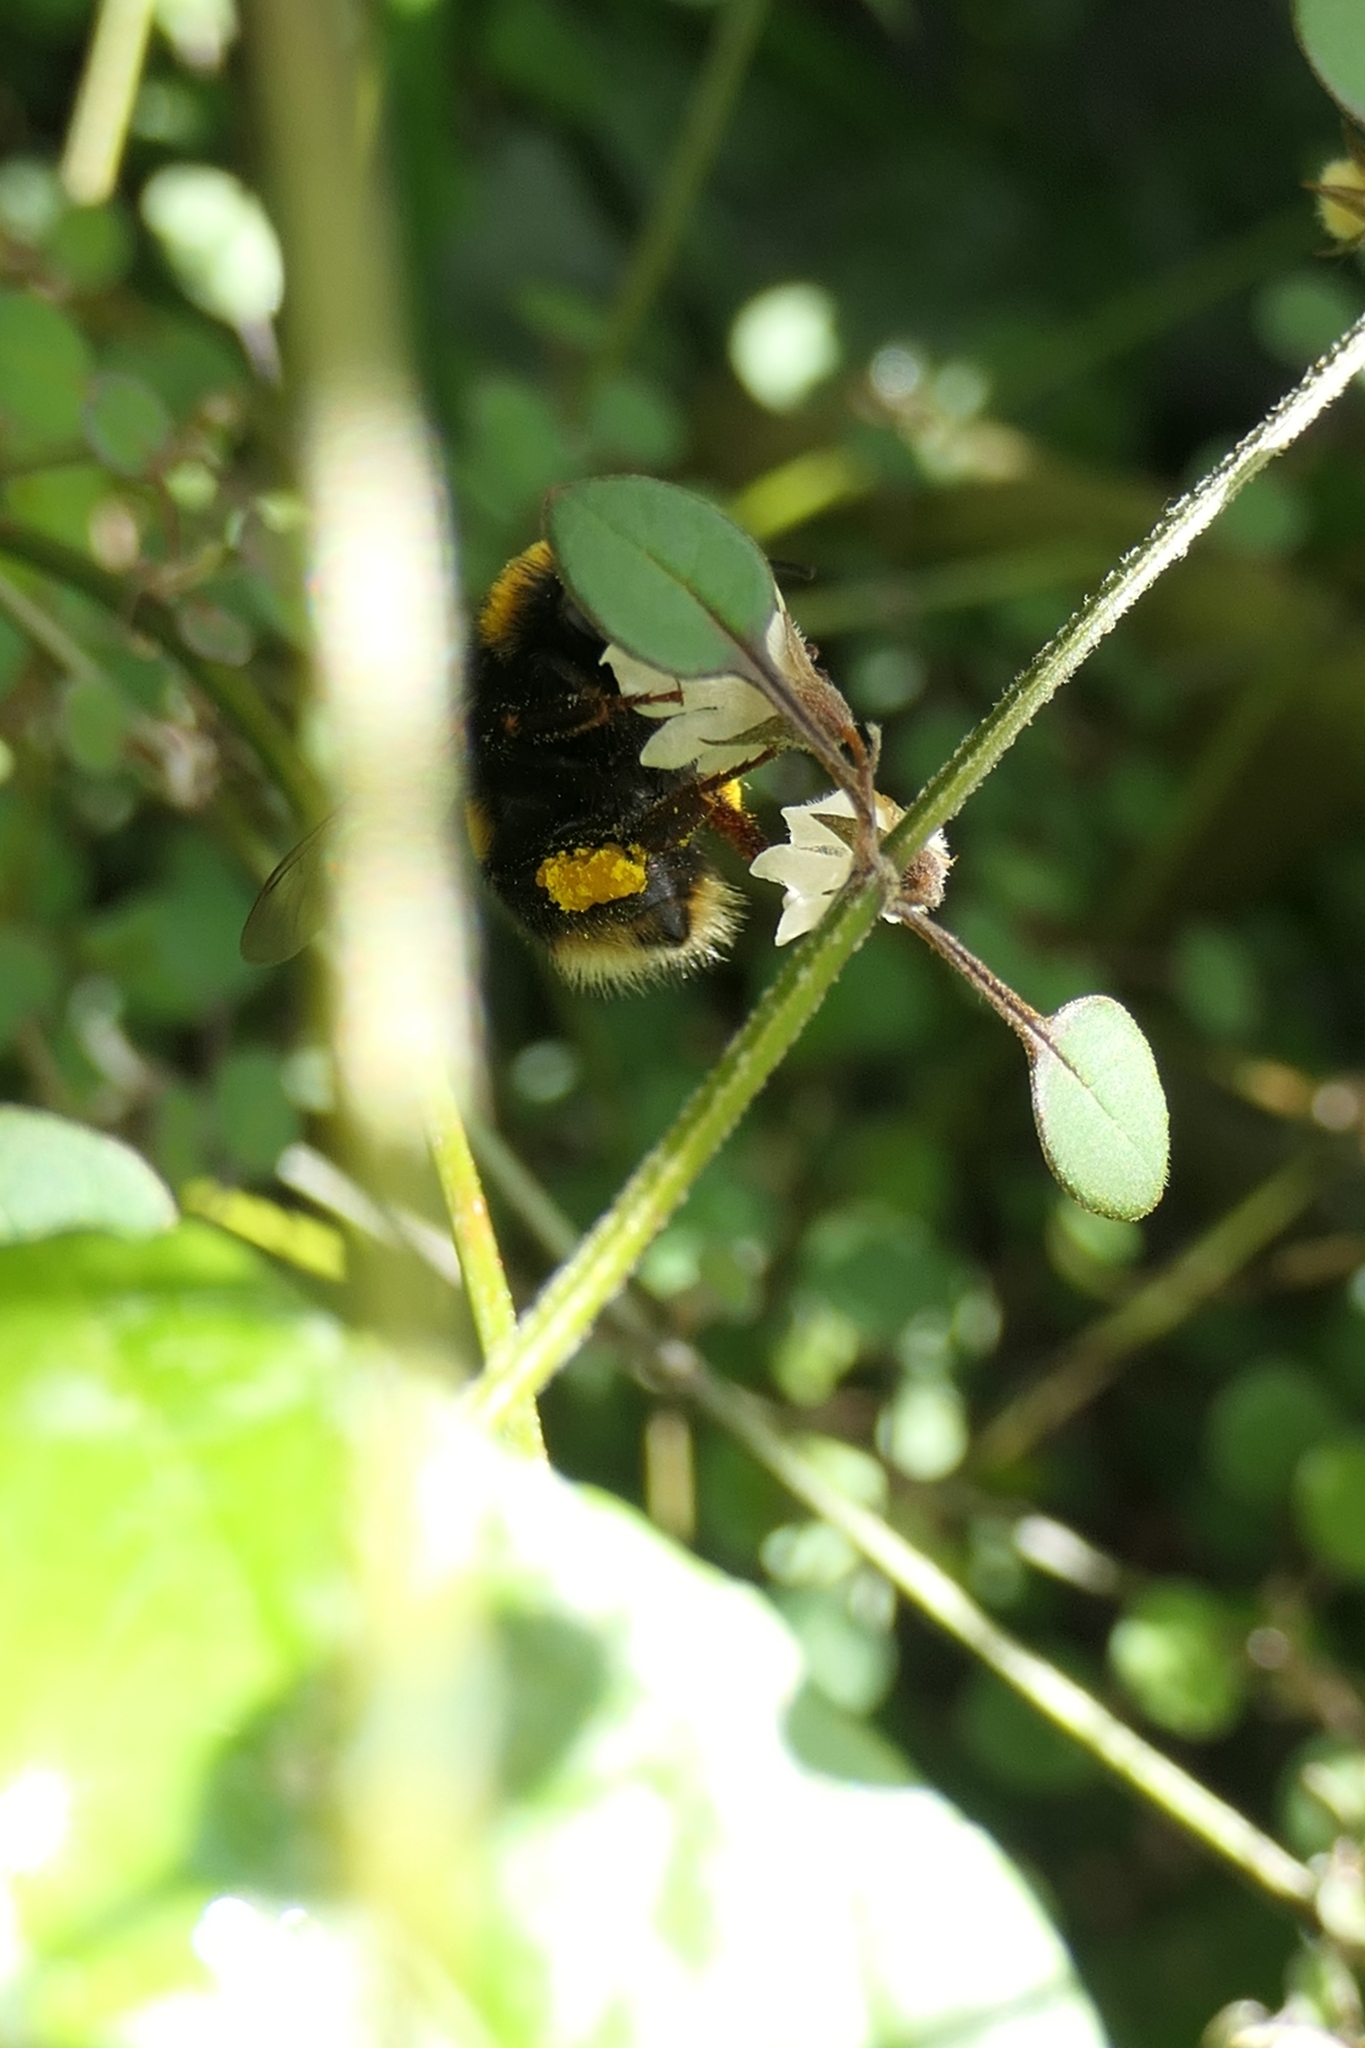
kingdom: Animalia
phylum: Arthropoda
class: Insecta
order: Hymenoptera
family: Apidae
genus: Bombus
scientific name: Bombus terrestris
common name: Buff-tailed bumblebee
